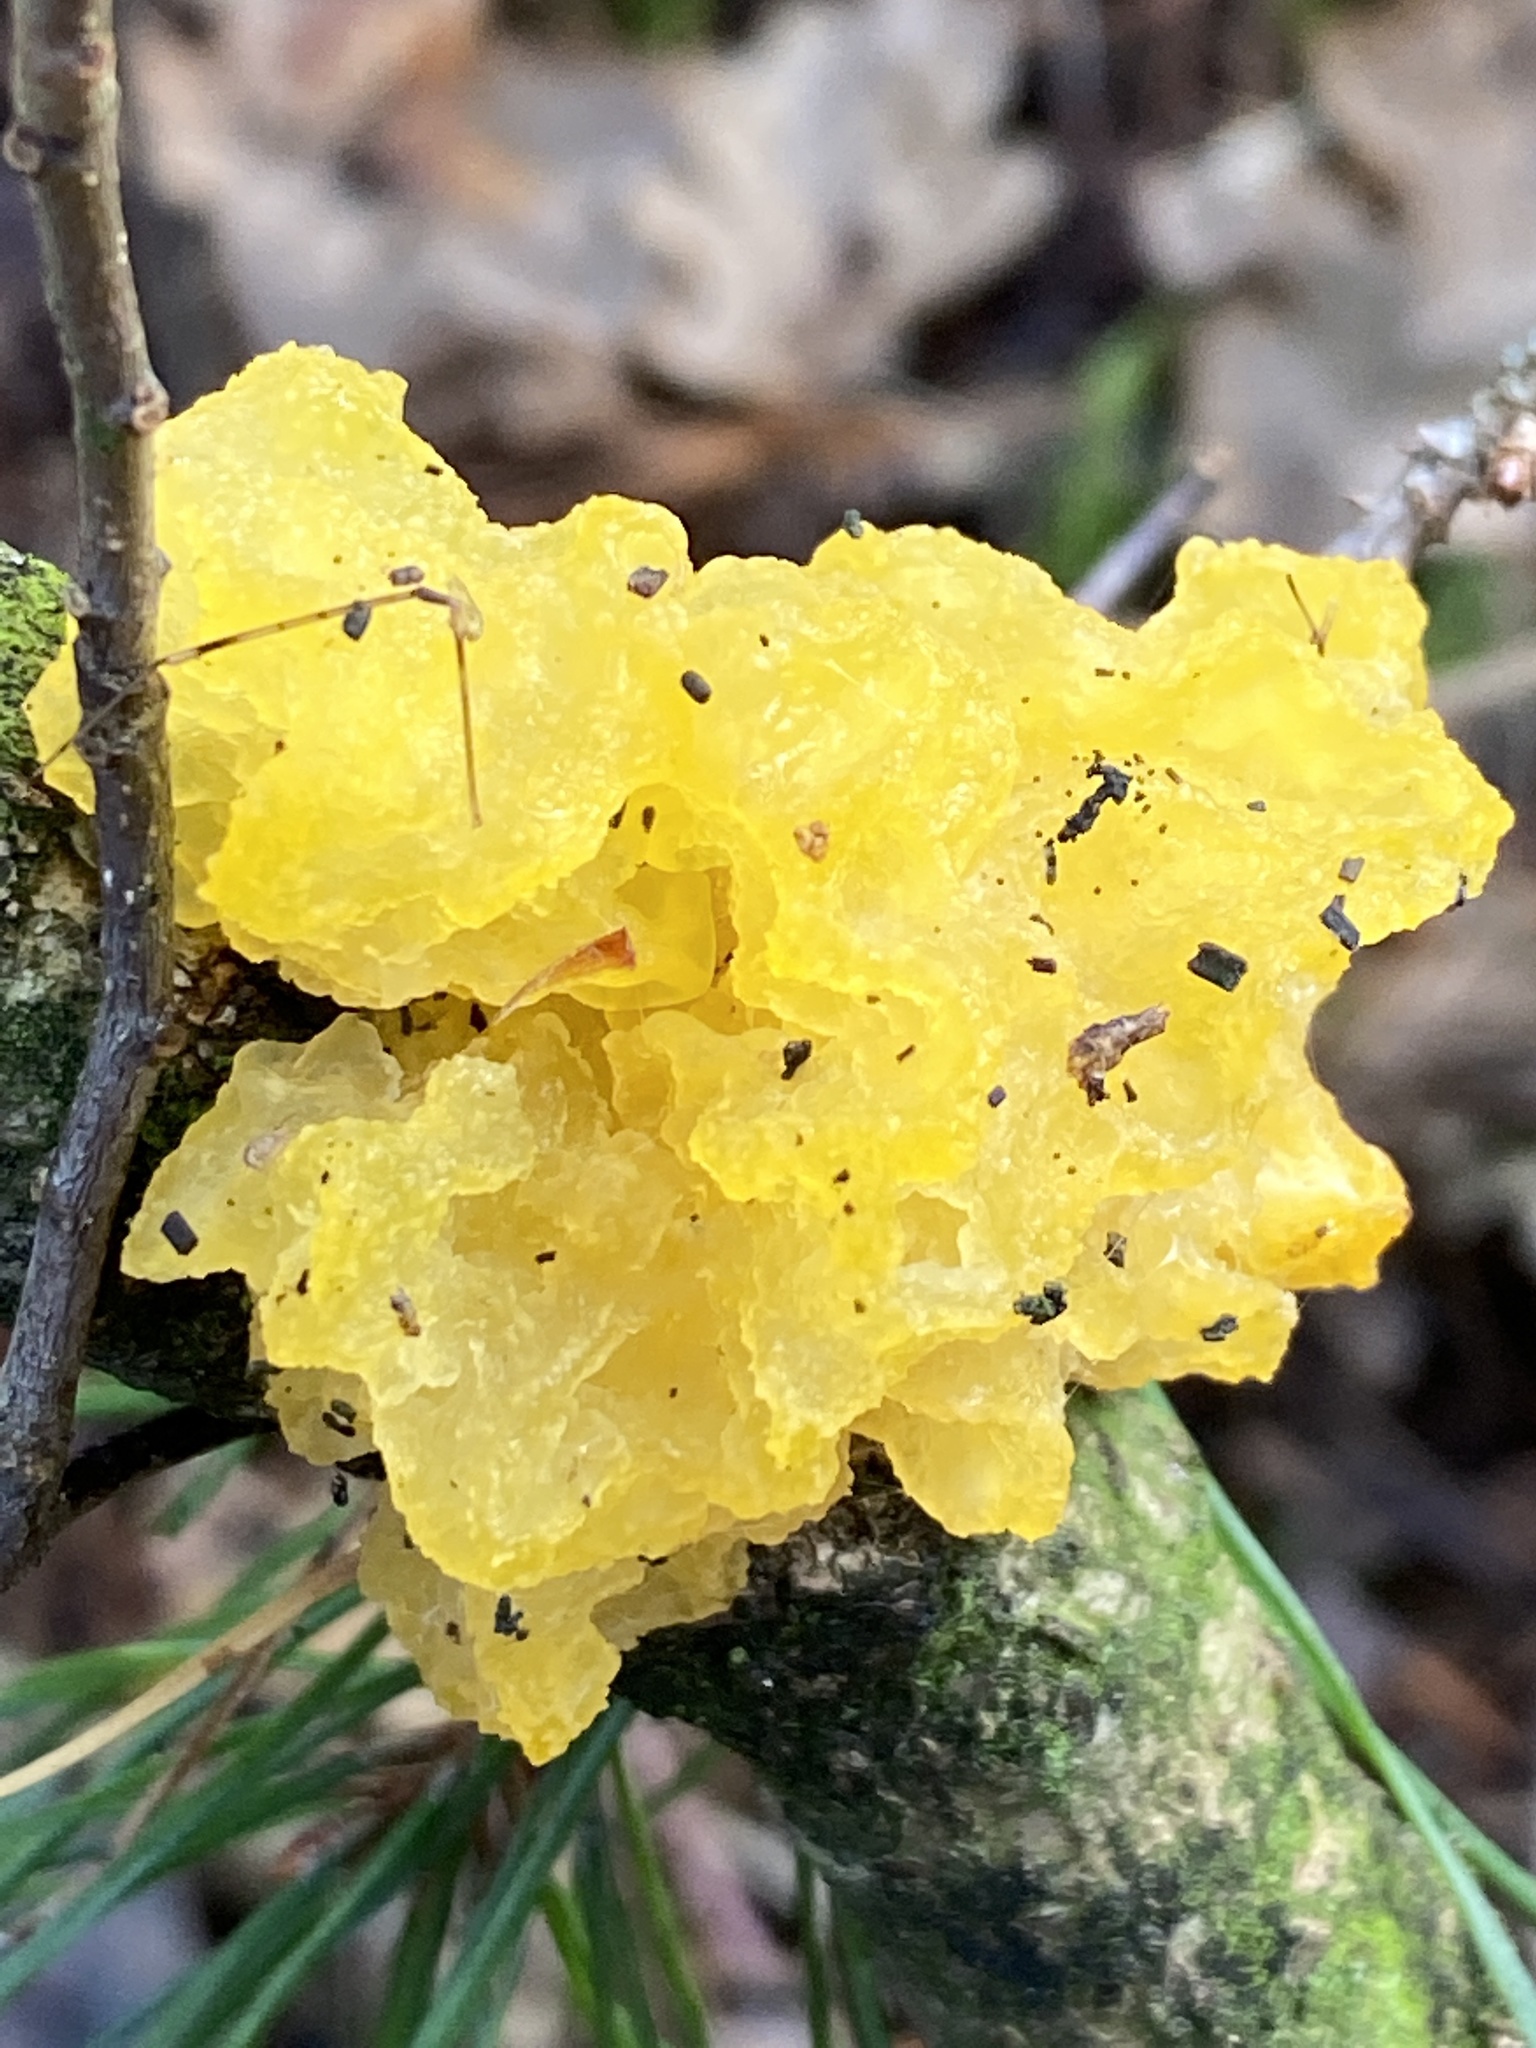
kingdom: Fungi
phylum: Basidiomycota
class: Tremellomycetes
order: Tremellales
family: Tremellaceae
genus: Tremella
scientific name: Tremella mesenterica
